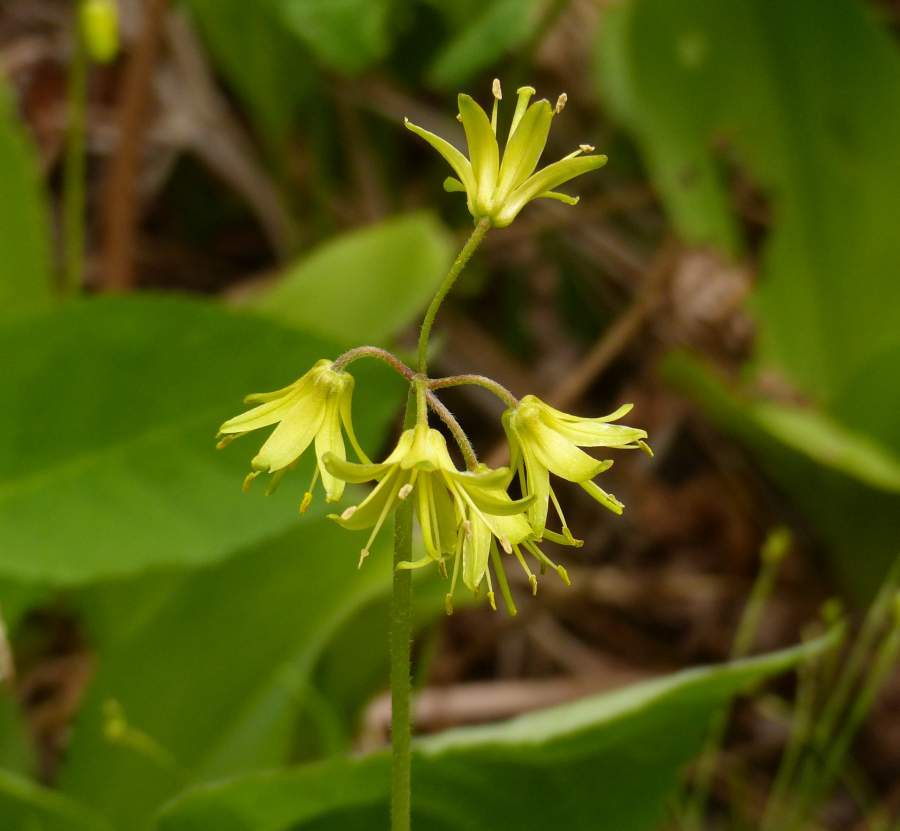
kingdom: Plantae
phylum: Tracheophyta
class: Liliopsida
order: Liliales
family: Liliaceae
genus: Clintonia
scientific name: Clintonia borealis
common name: Yellow clintonia
